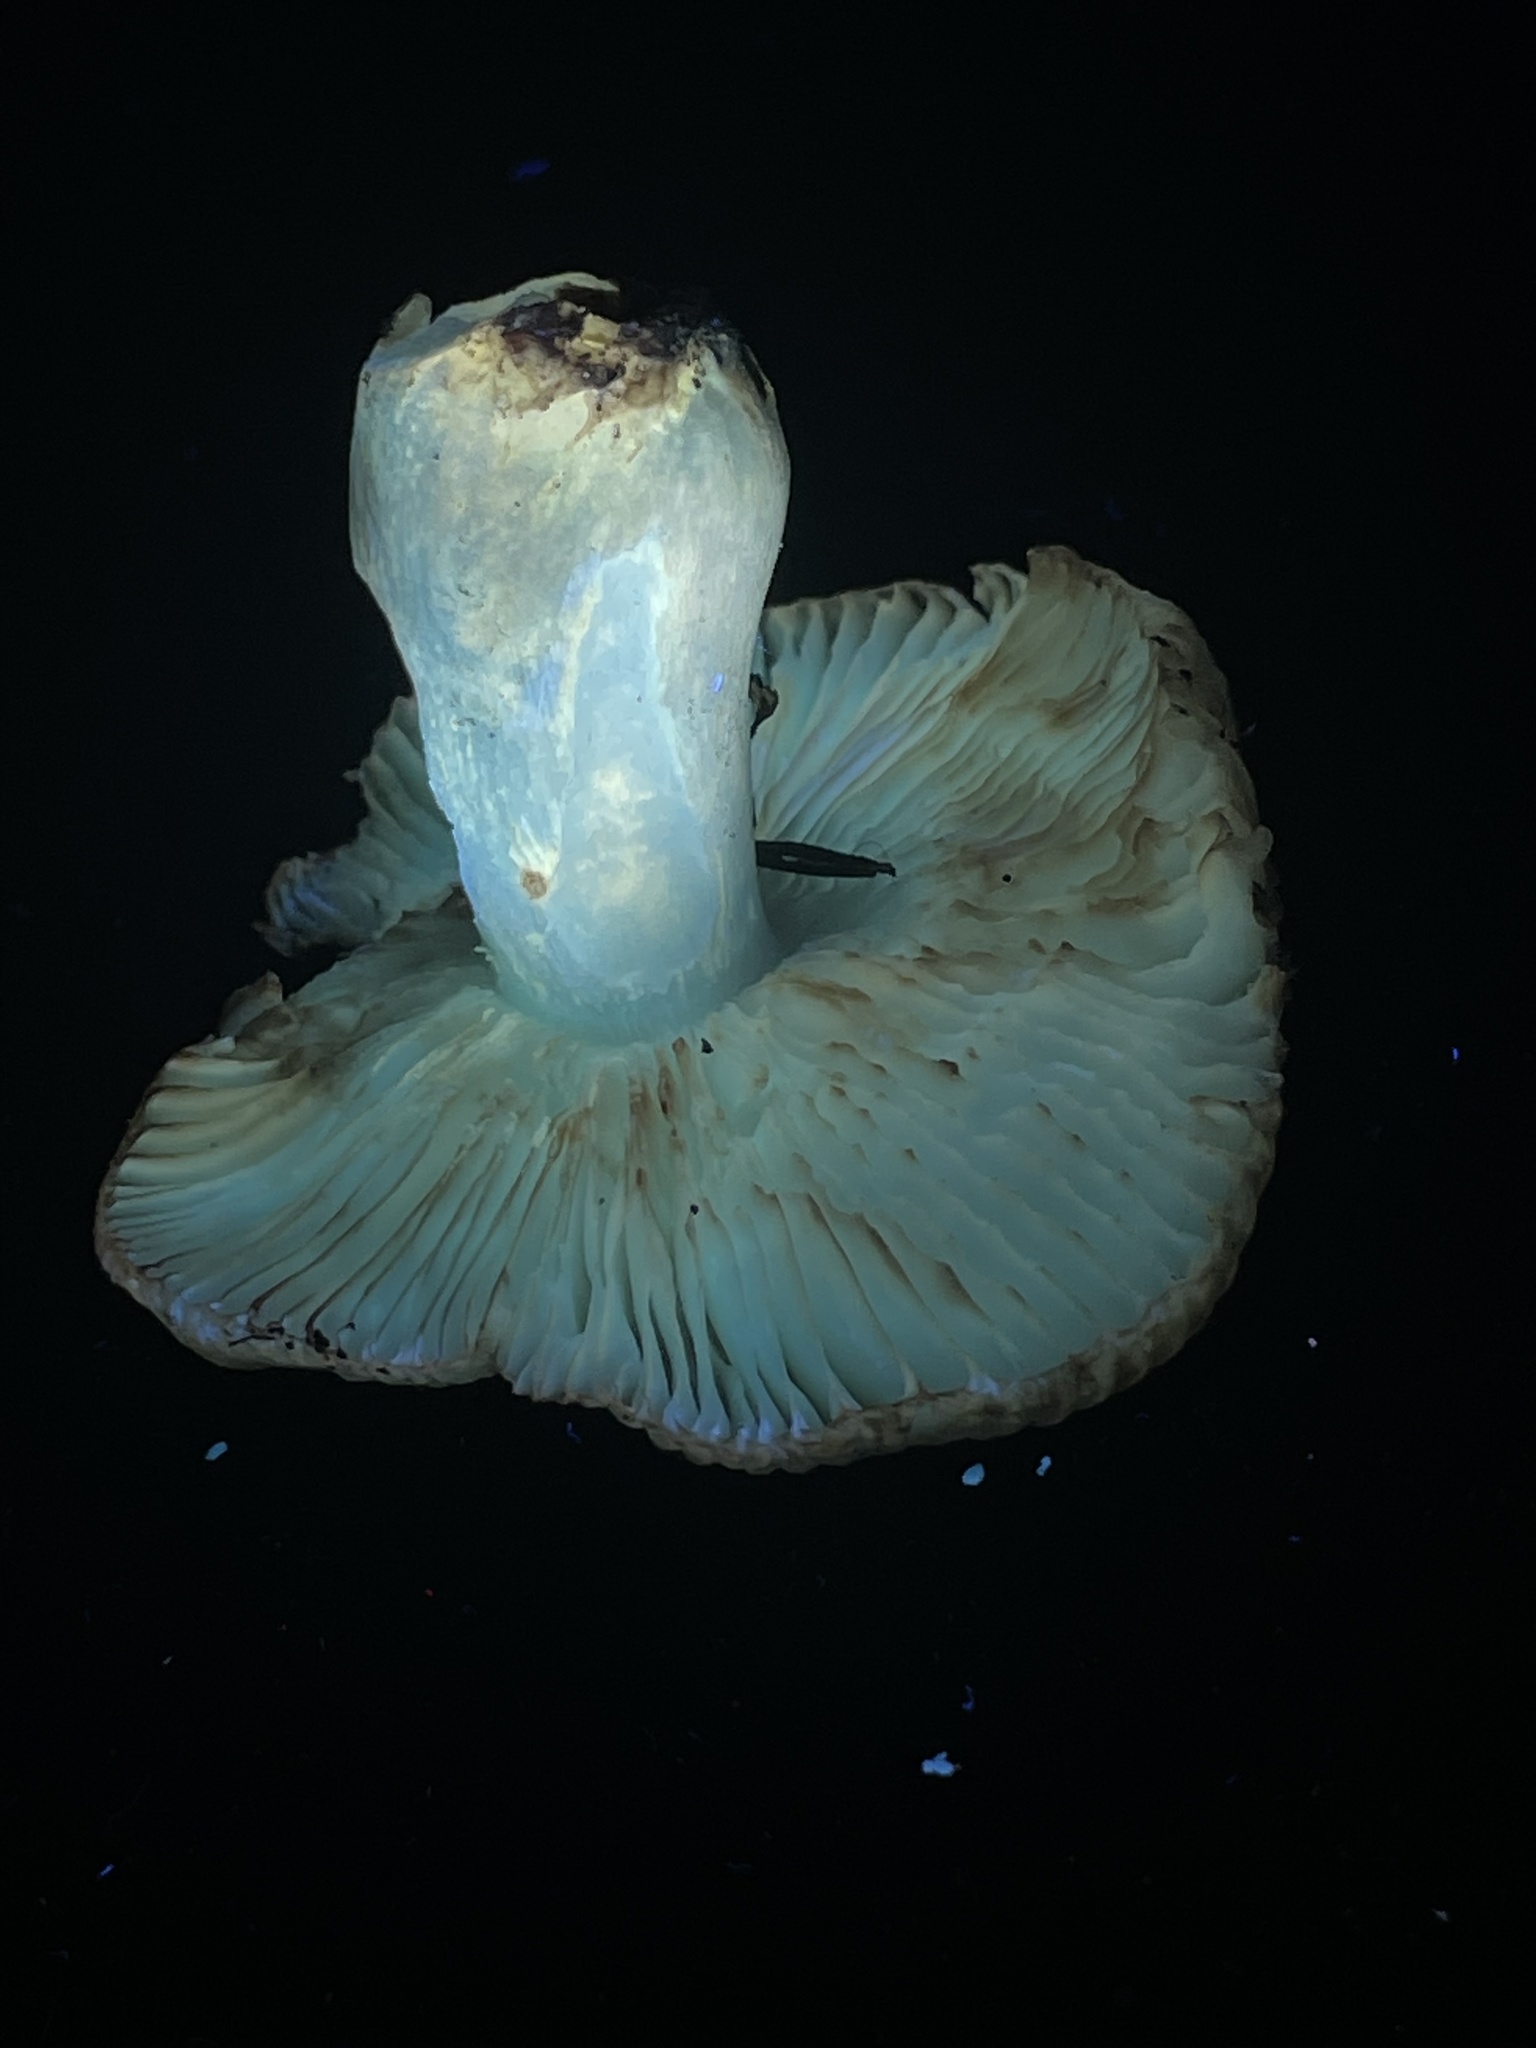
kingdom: Fungi
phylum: Basidiomycota
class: Agaricomycetes
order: Russulales
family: Russulaceae
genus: Russula
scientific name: Russula cerolens
